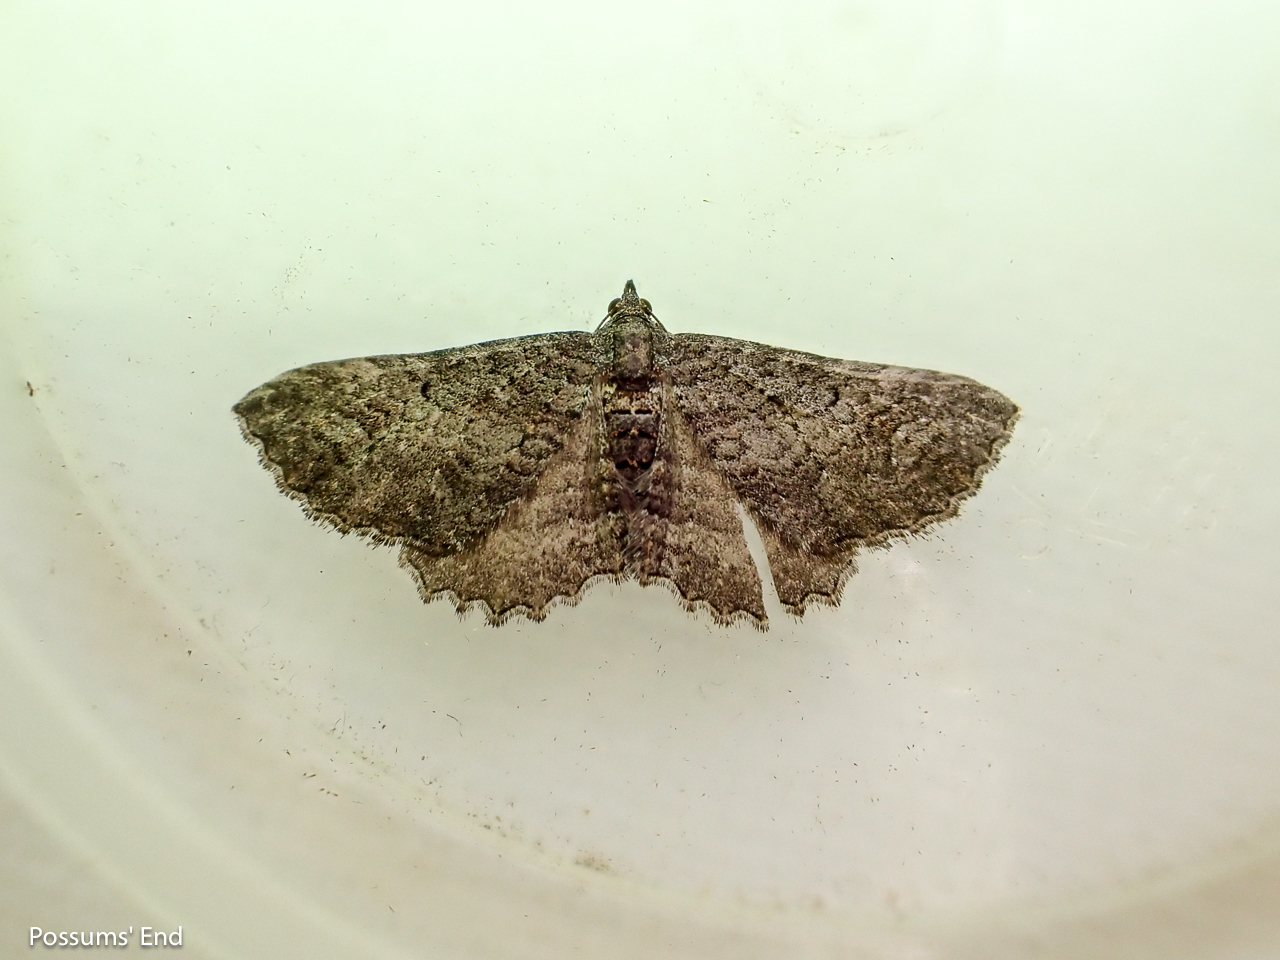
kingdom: Animalia
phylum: Arthropoda
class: Insecta
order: Lepidoptera
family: Geometridae
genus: Horisme
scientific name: Horisme suppressaria
